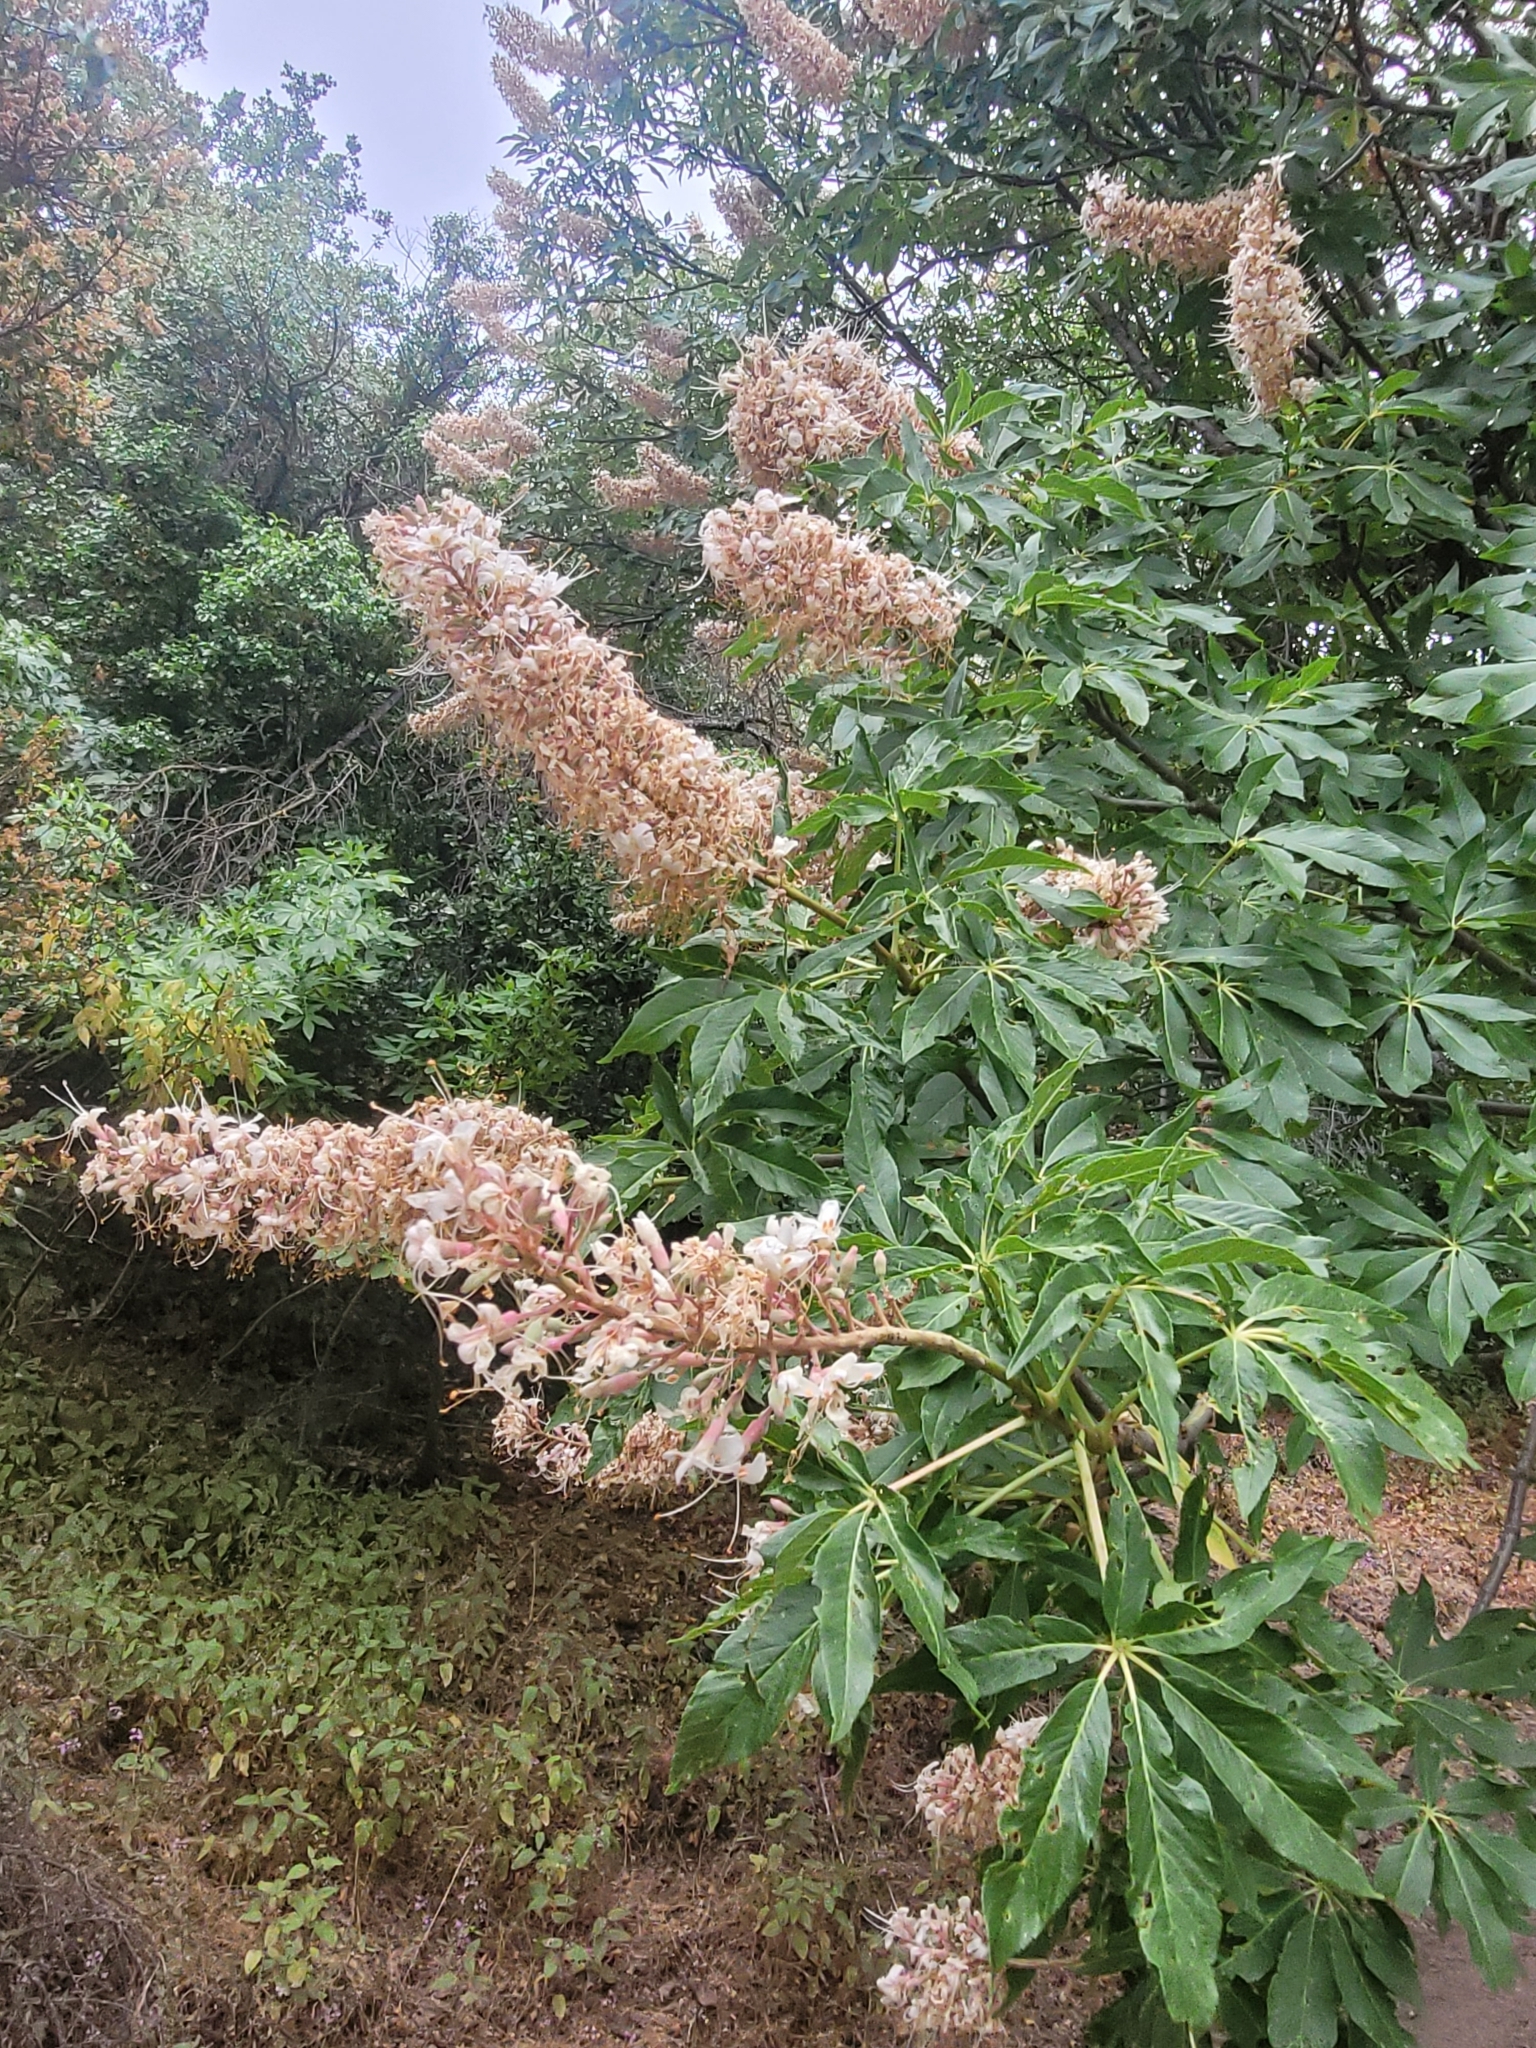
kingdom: Plantae
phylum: Tracheophyta
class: Magnoliopsida
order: Sapindales
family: Sapindaceae
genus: Aesculus
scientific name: Aesculus californica
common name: California buckeye
